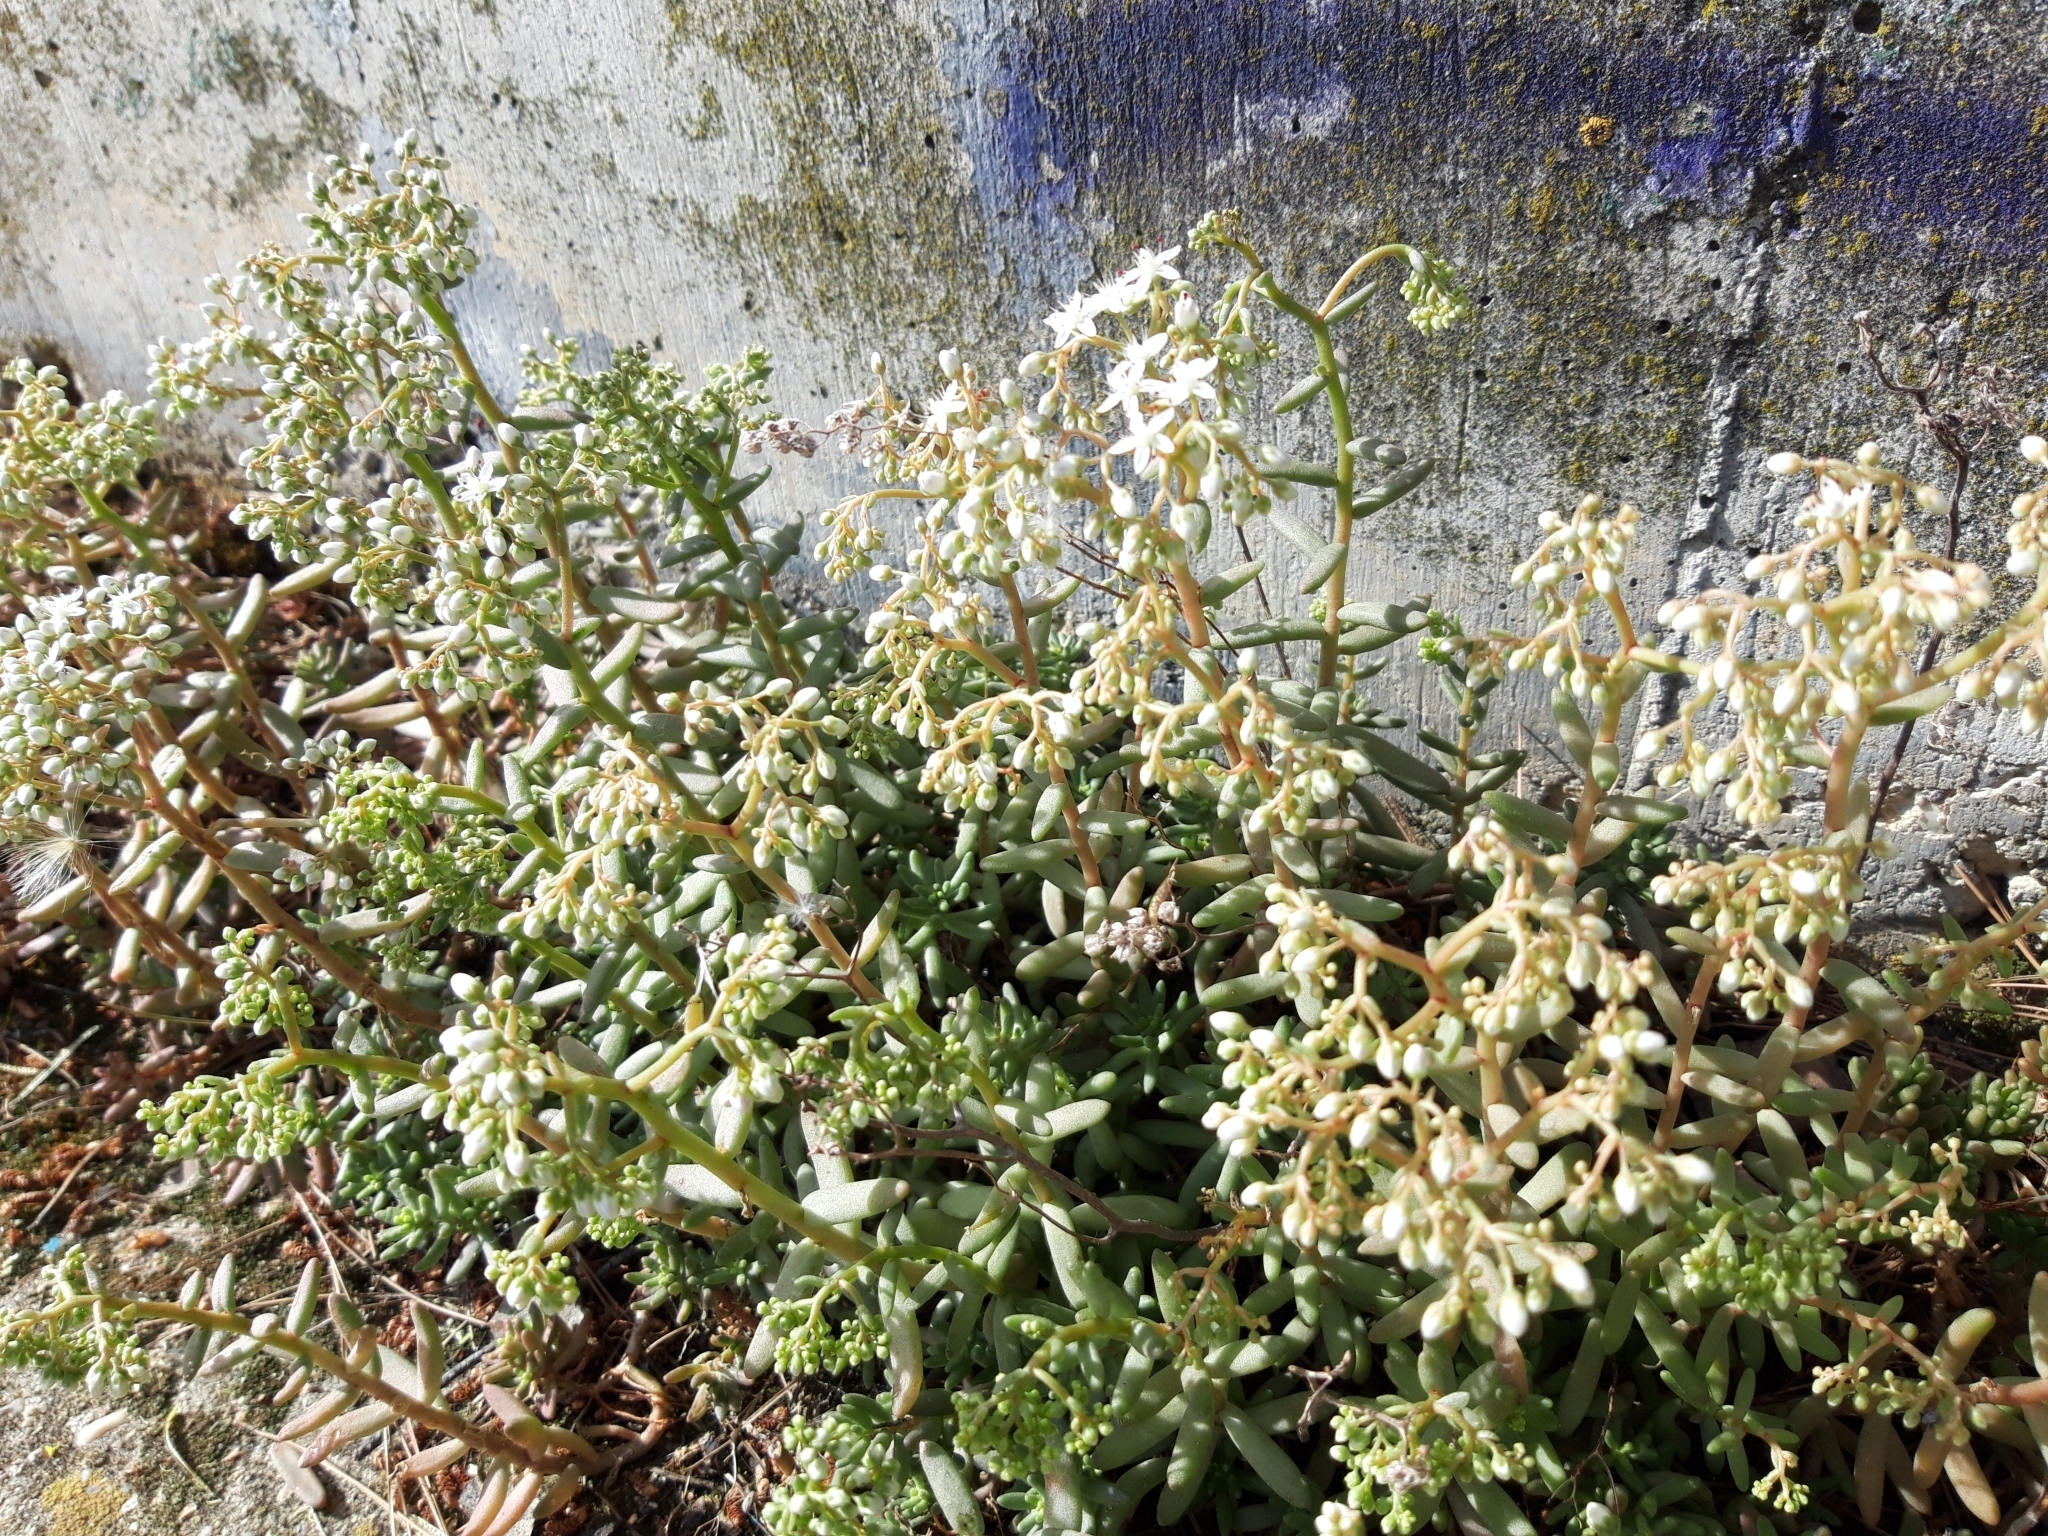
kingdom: Plantae
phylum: Tracheophyta
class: Magnoliopsida
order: Saxifragales
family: Crassulaceae
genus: Sedum
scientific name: Sedum album
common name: White stonecrop
